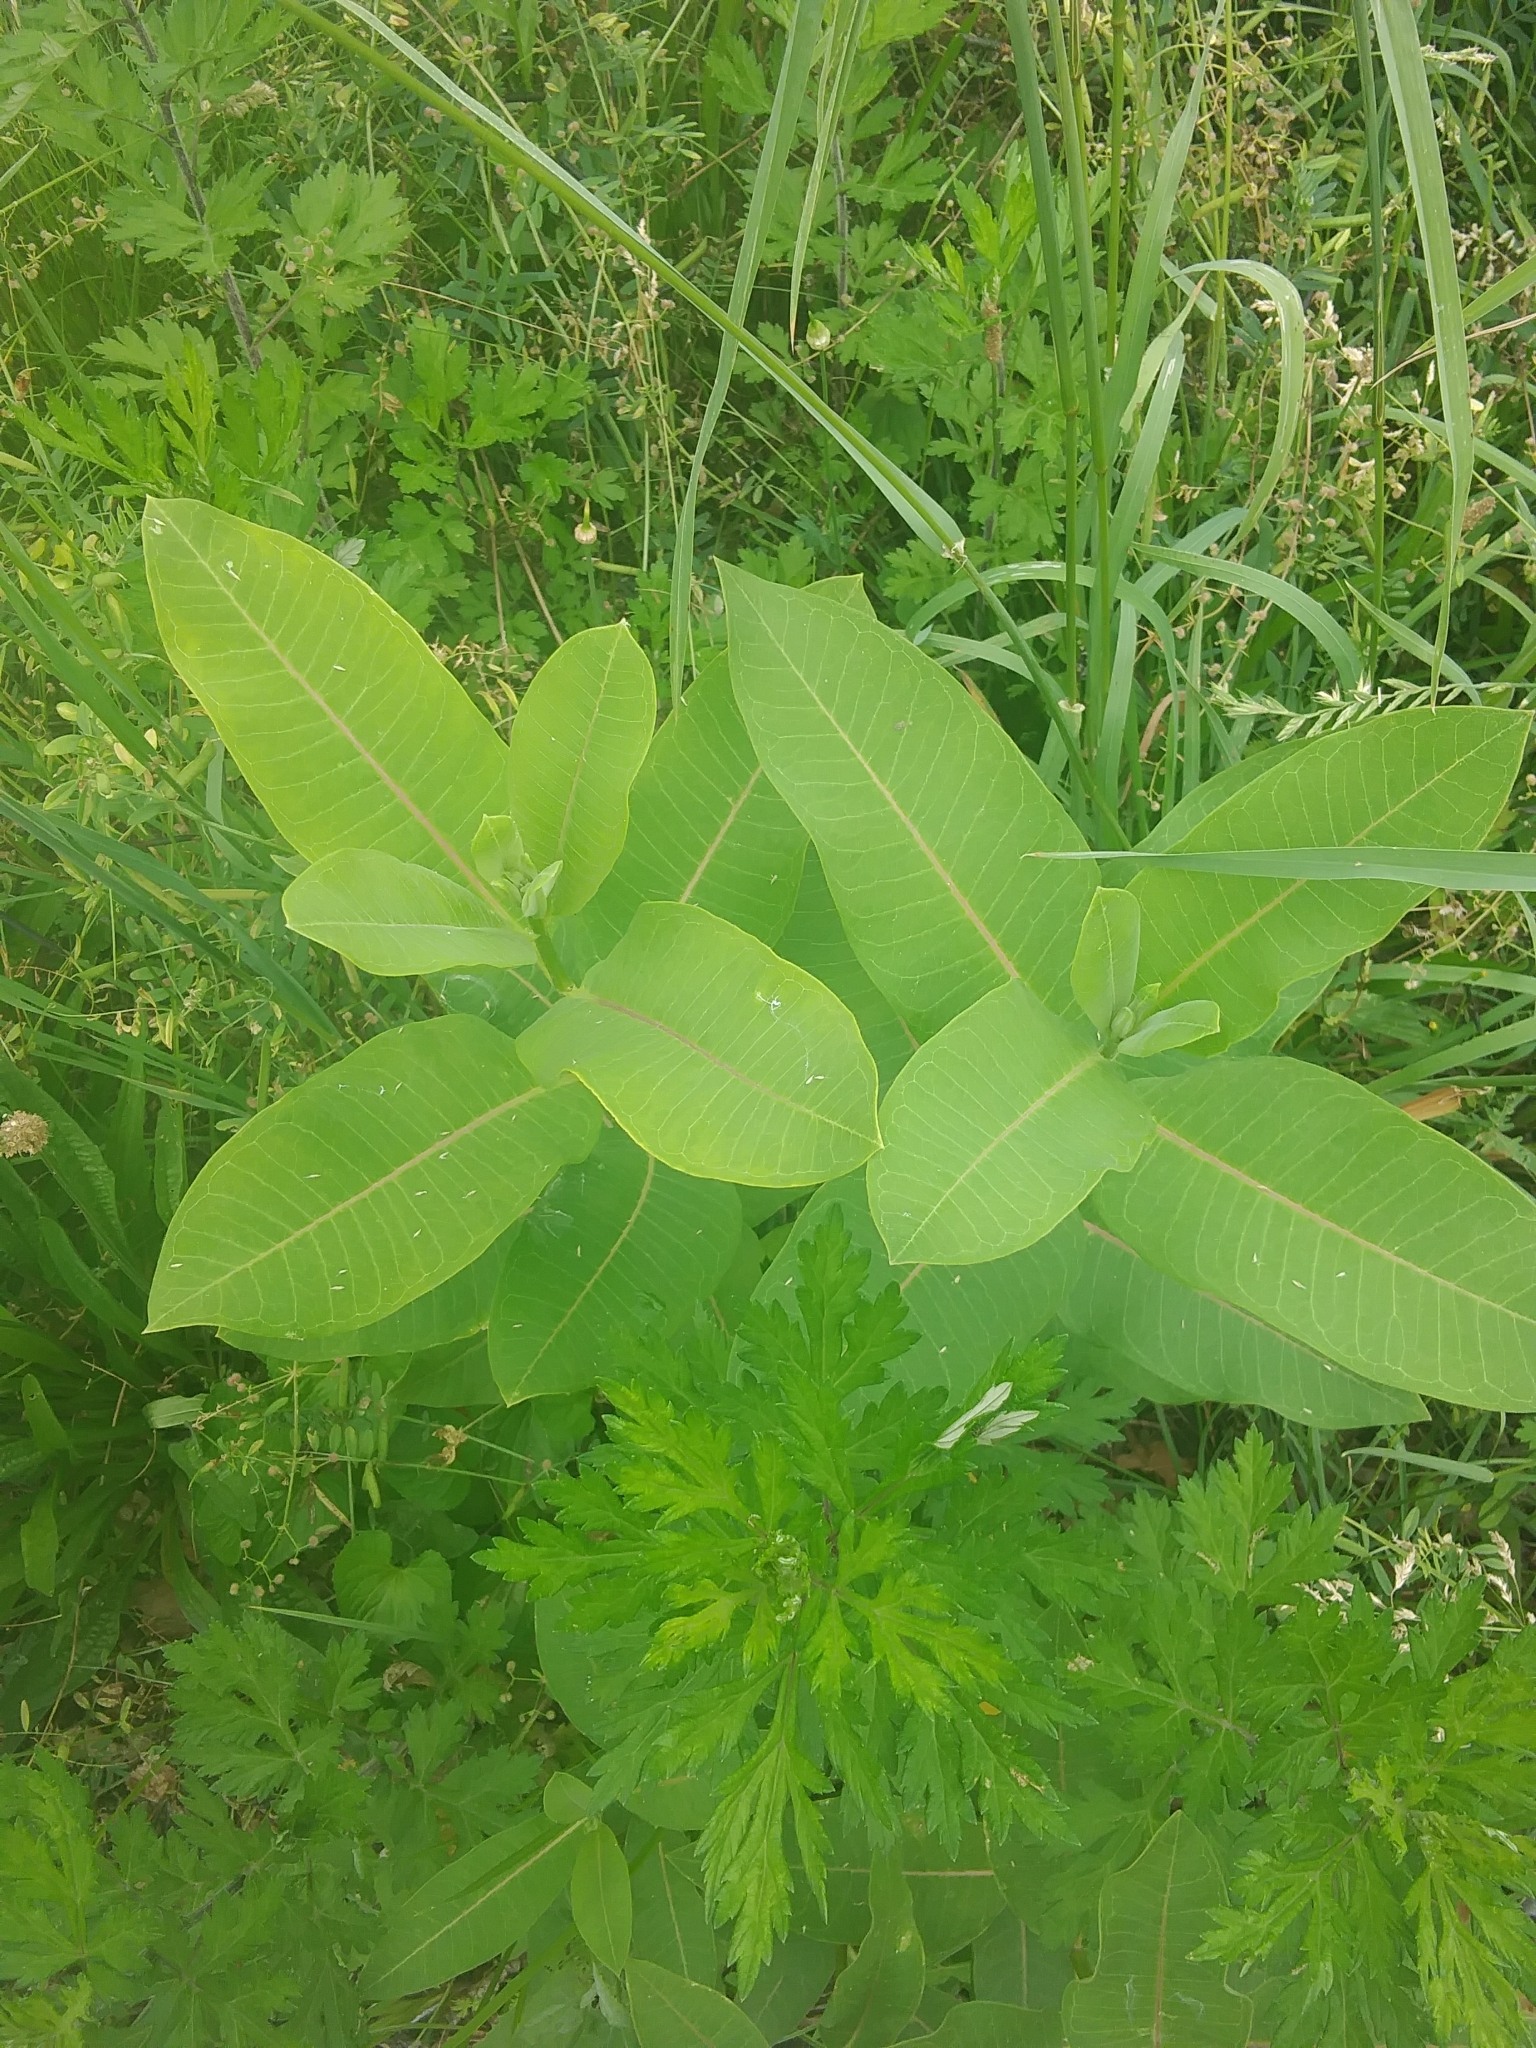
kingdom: Plantae
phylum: Tracheophyta
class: Magnoliopsida
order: Gentianales
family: Apocynaceae
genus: Asclepias
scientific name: Asclepias syriaca
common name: Common milkweed
